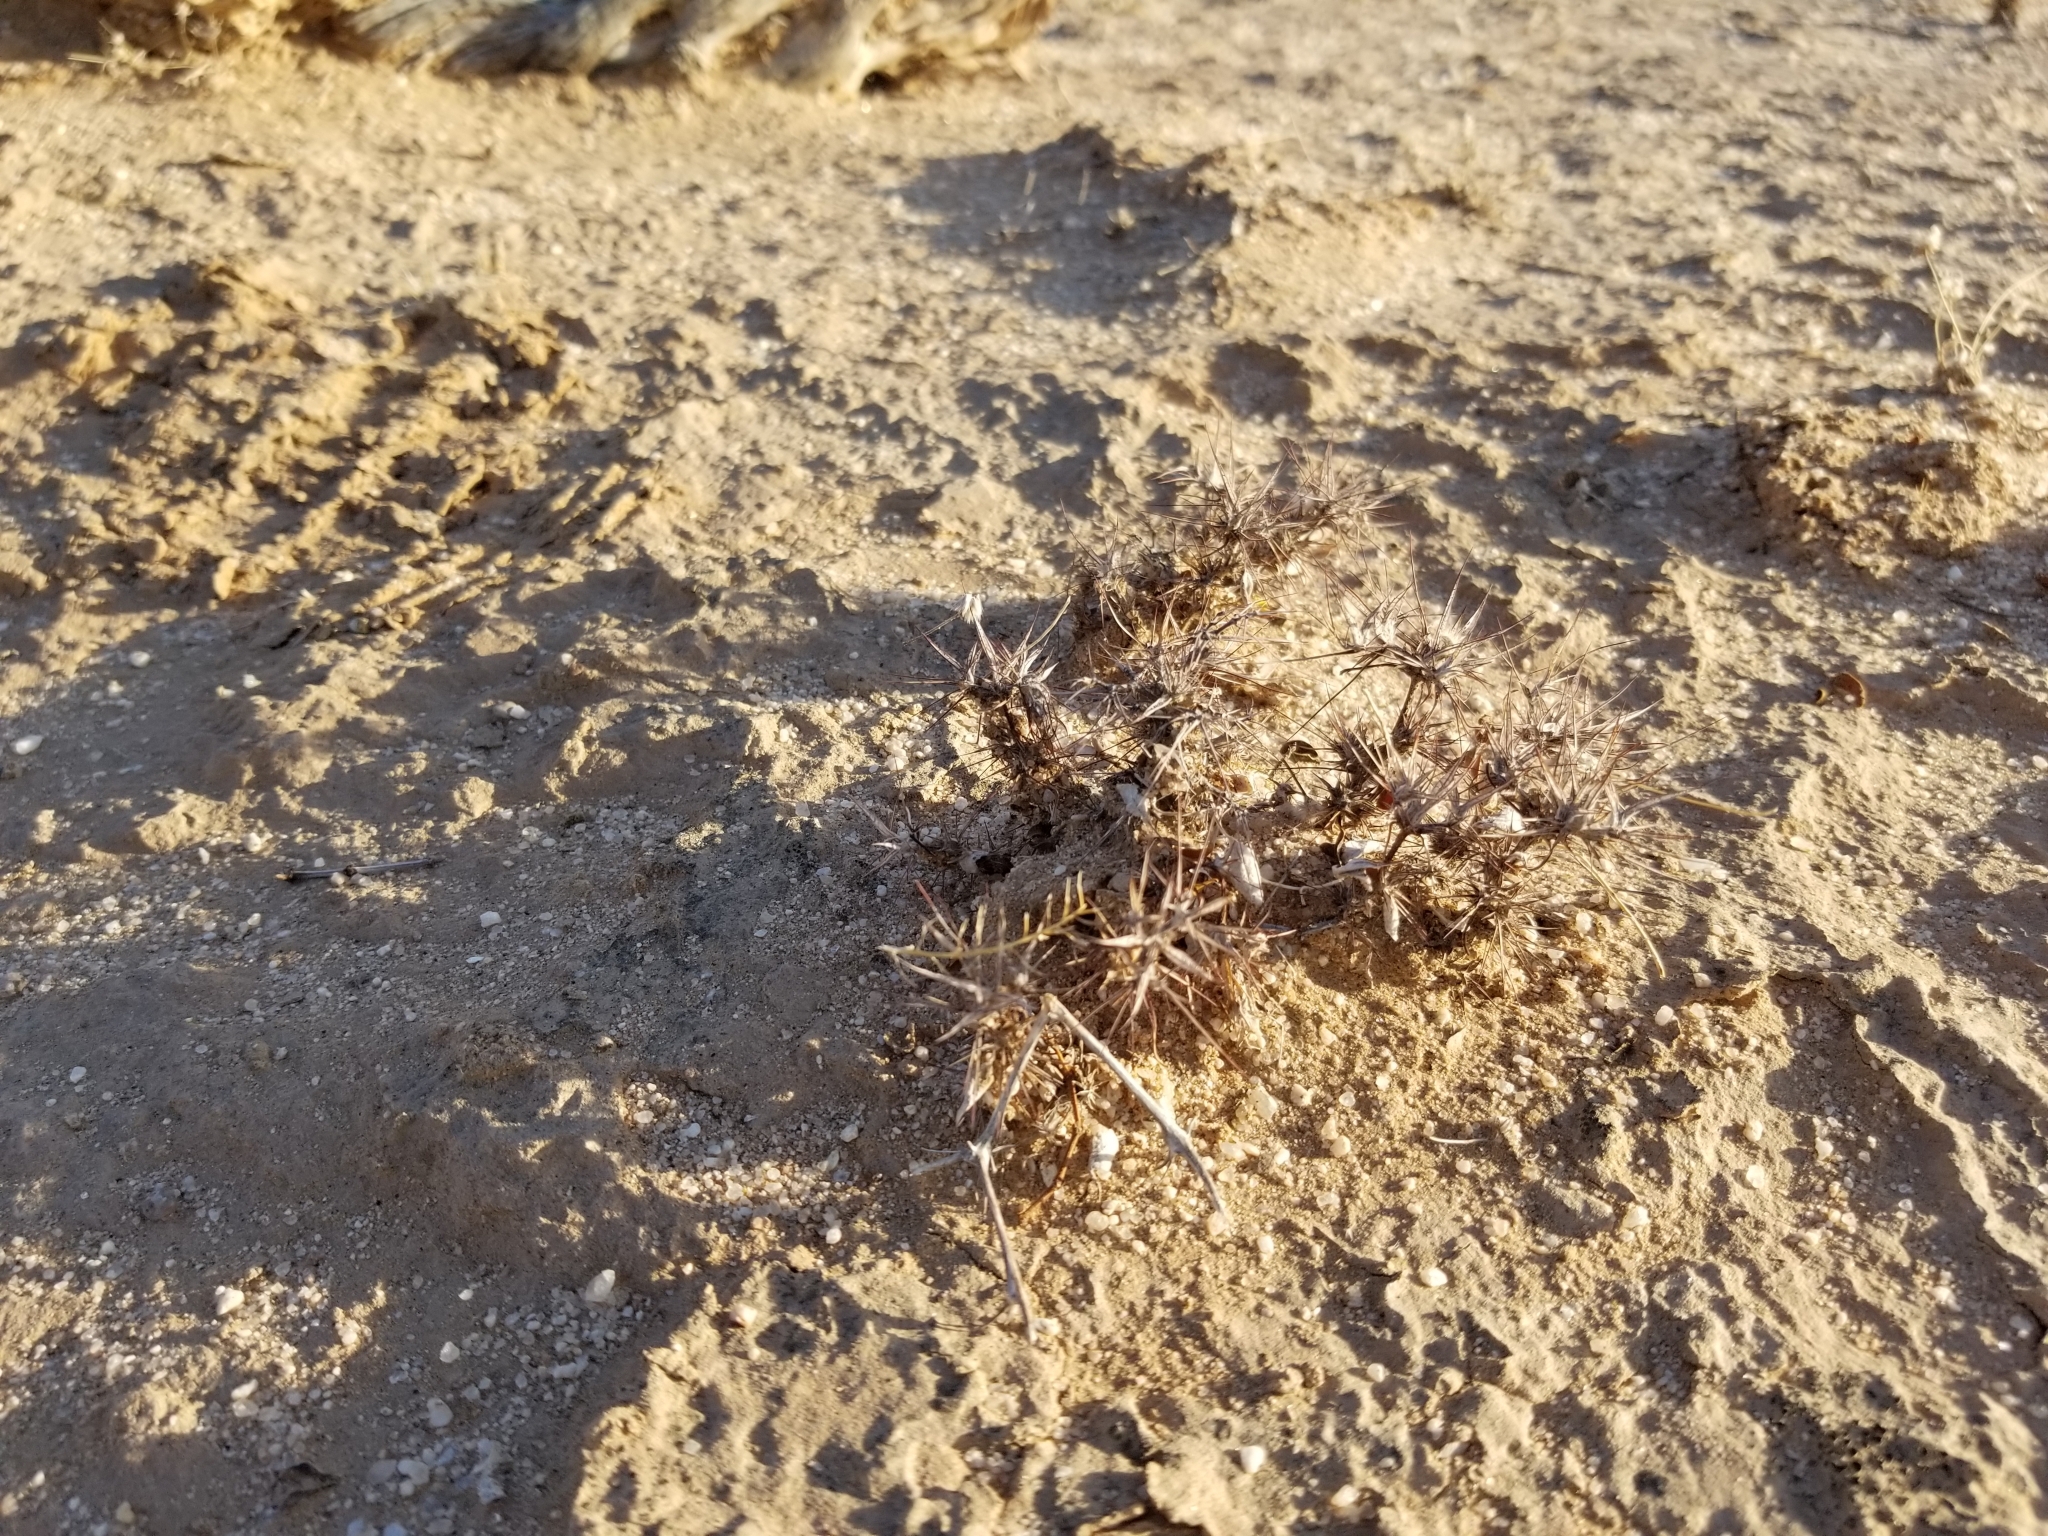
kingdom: Plantae
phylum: Tracheophyta
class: Magnoliopsida
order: Caryophyllales
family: Polygonaceae
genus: Chorizanthe
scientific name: Chorizanthe rigida
